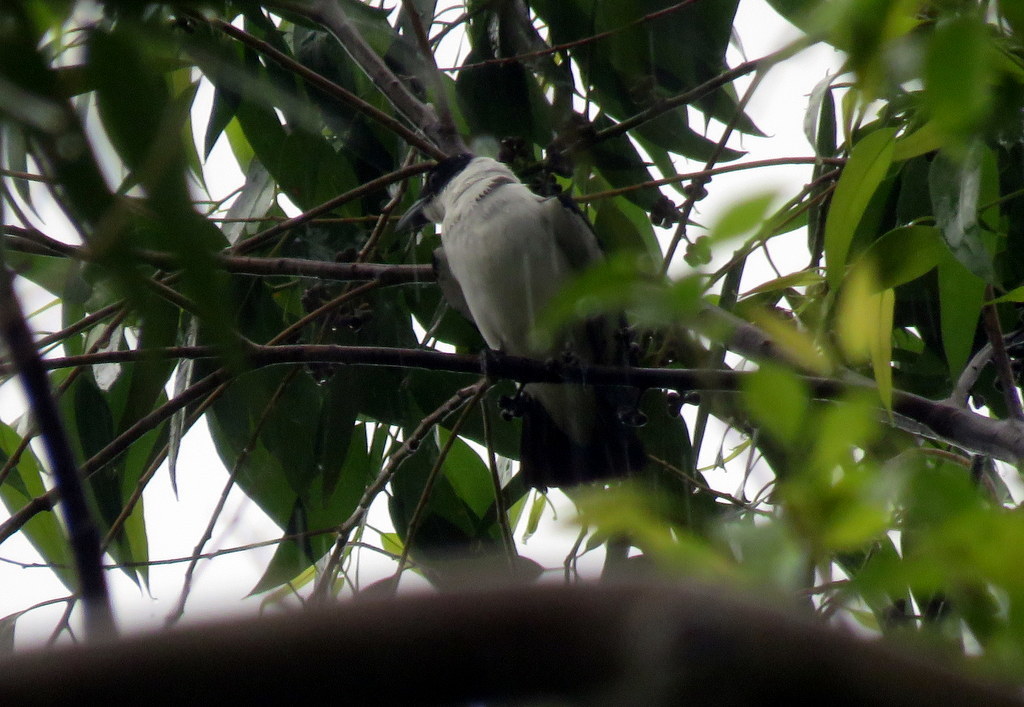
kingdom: Animalia
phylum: Chordata
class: Aves
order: Passeriformes
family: Cotingidae
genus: Tityra
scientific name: Tityra inquisitor
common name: Black-crowned tityra
